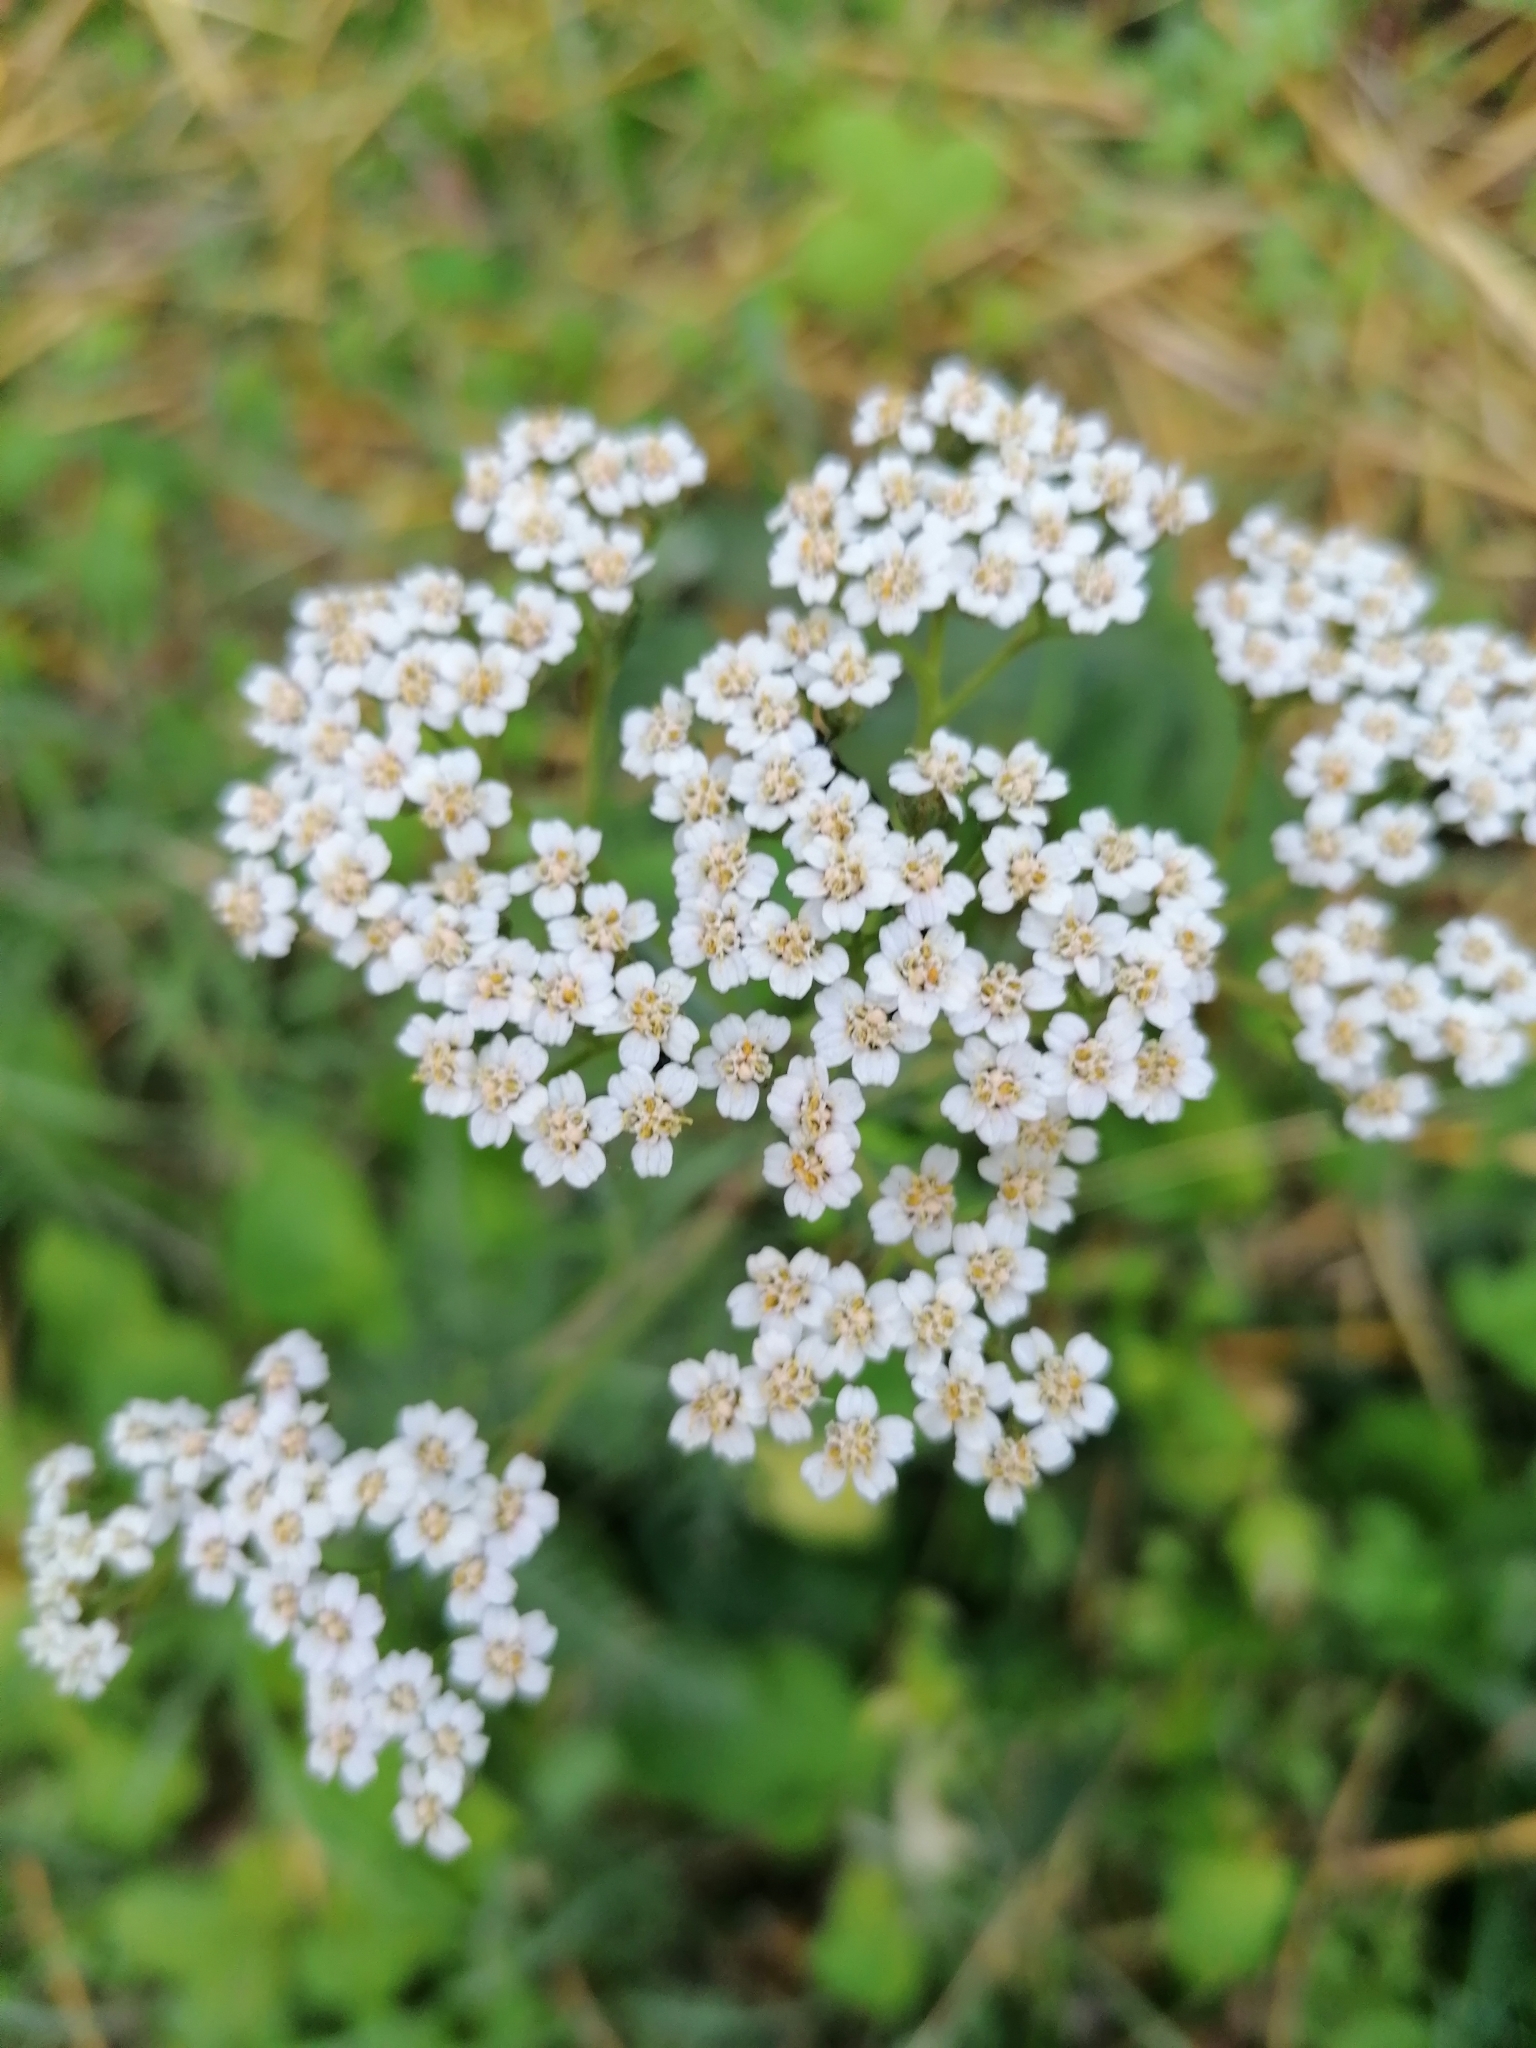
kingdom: Plantae
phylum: Tracheophyta
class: Magnoliopsida
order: Asterales
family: Asteraceae
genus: Achillea
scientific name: Achillea millefolium
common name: Yarrow
